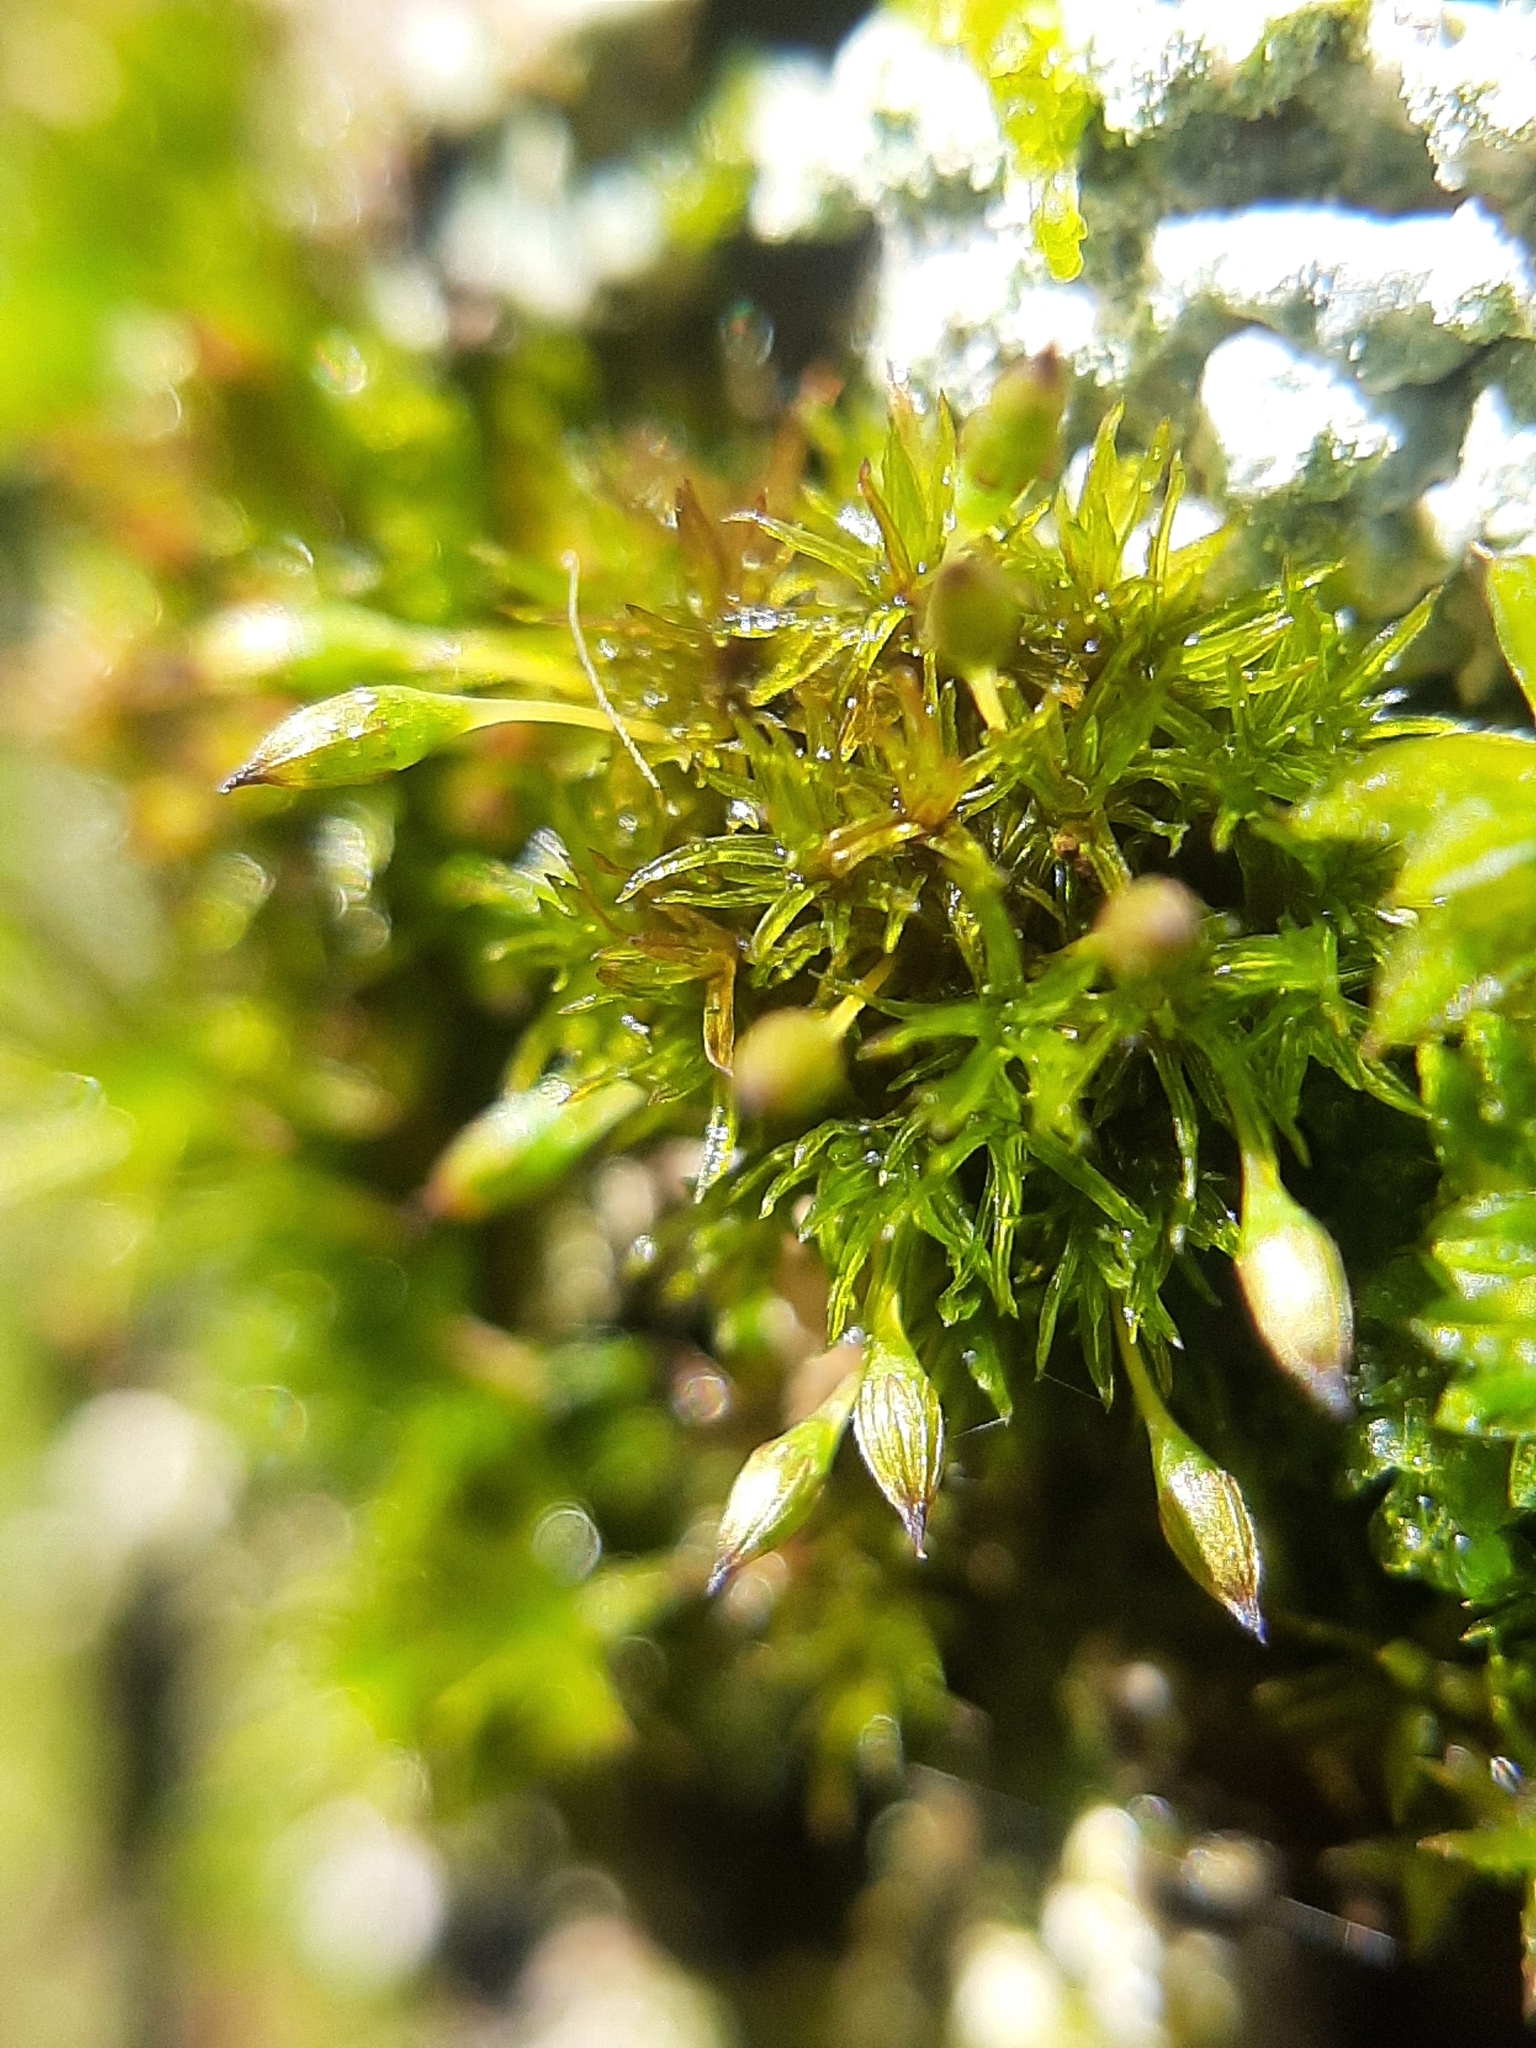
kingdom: Plantae
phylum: Bryophyta
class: Bryopsida
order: Orthotrichales
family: Orthotrichaceae
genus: Ulota
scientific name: Ulota lutea
